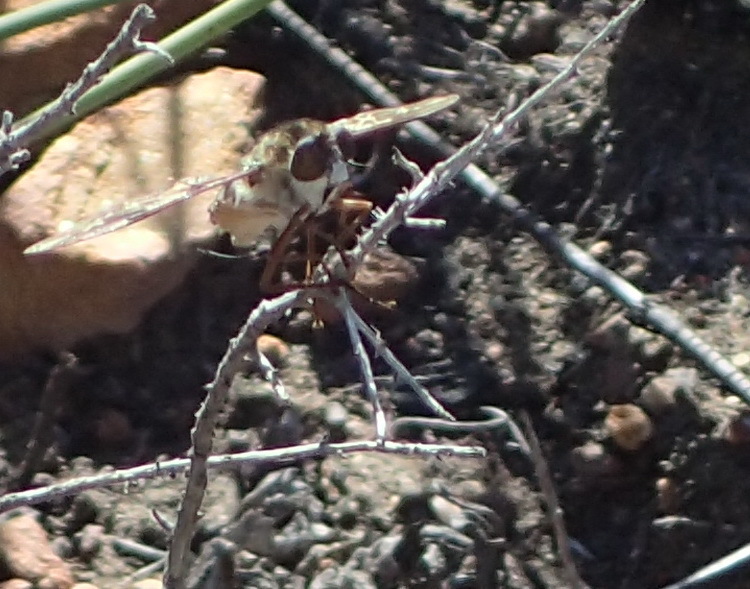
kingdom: Animalia
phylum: Arthropoda
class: Insecta
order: Diptera
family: Nemestrinidae
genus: Prosoeca
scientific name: Prosoeca ganglbaueri
